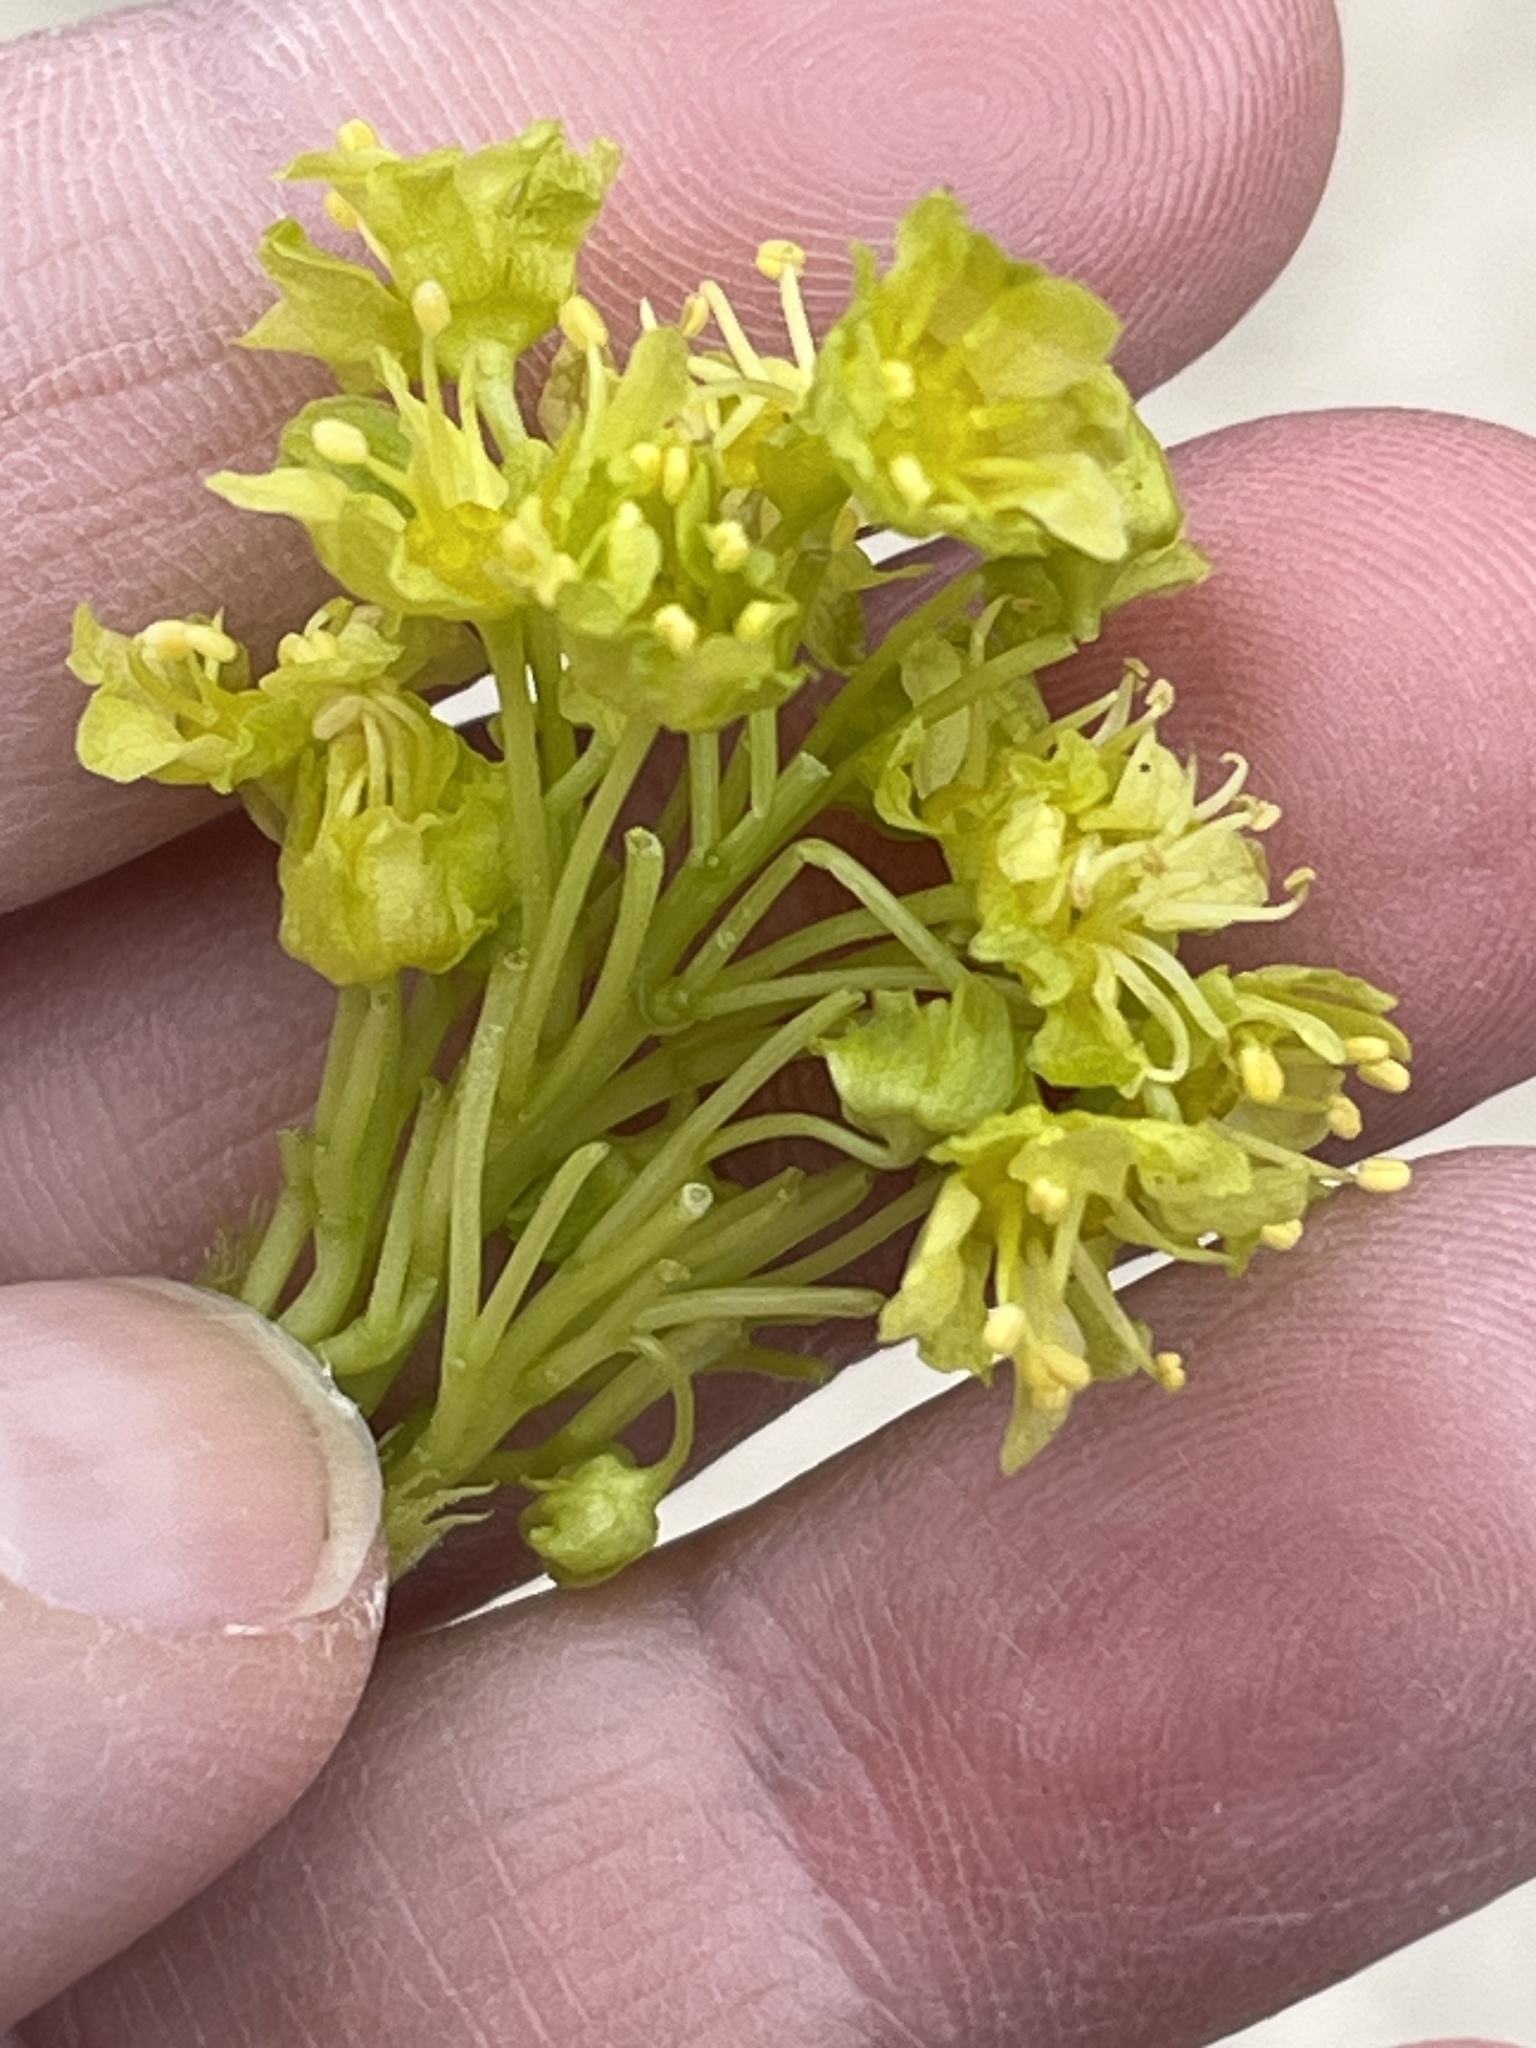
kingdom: Plantae
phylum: Tracheophyta
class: Magnoliopsida
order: Sapindales
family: Sapindaceae
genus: Acer
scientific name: Acer platanoides
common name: Norway maple
